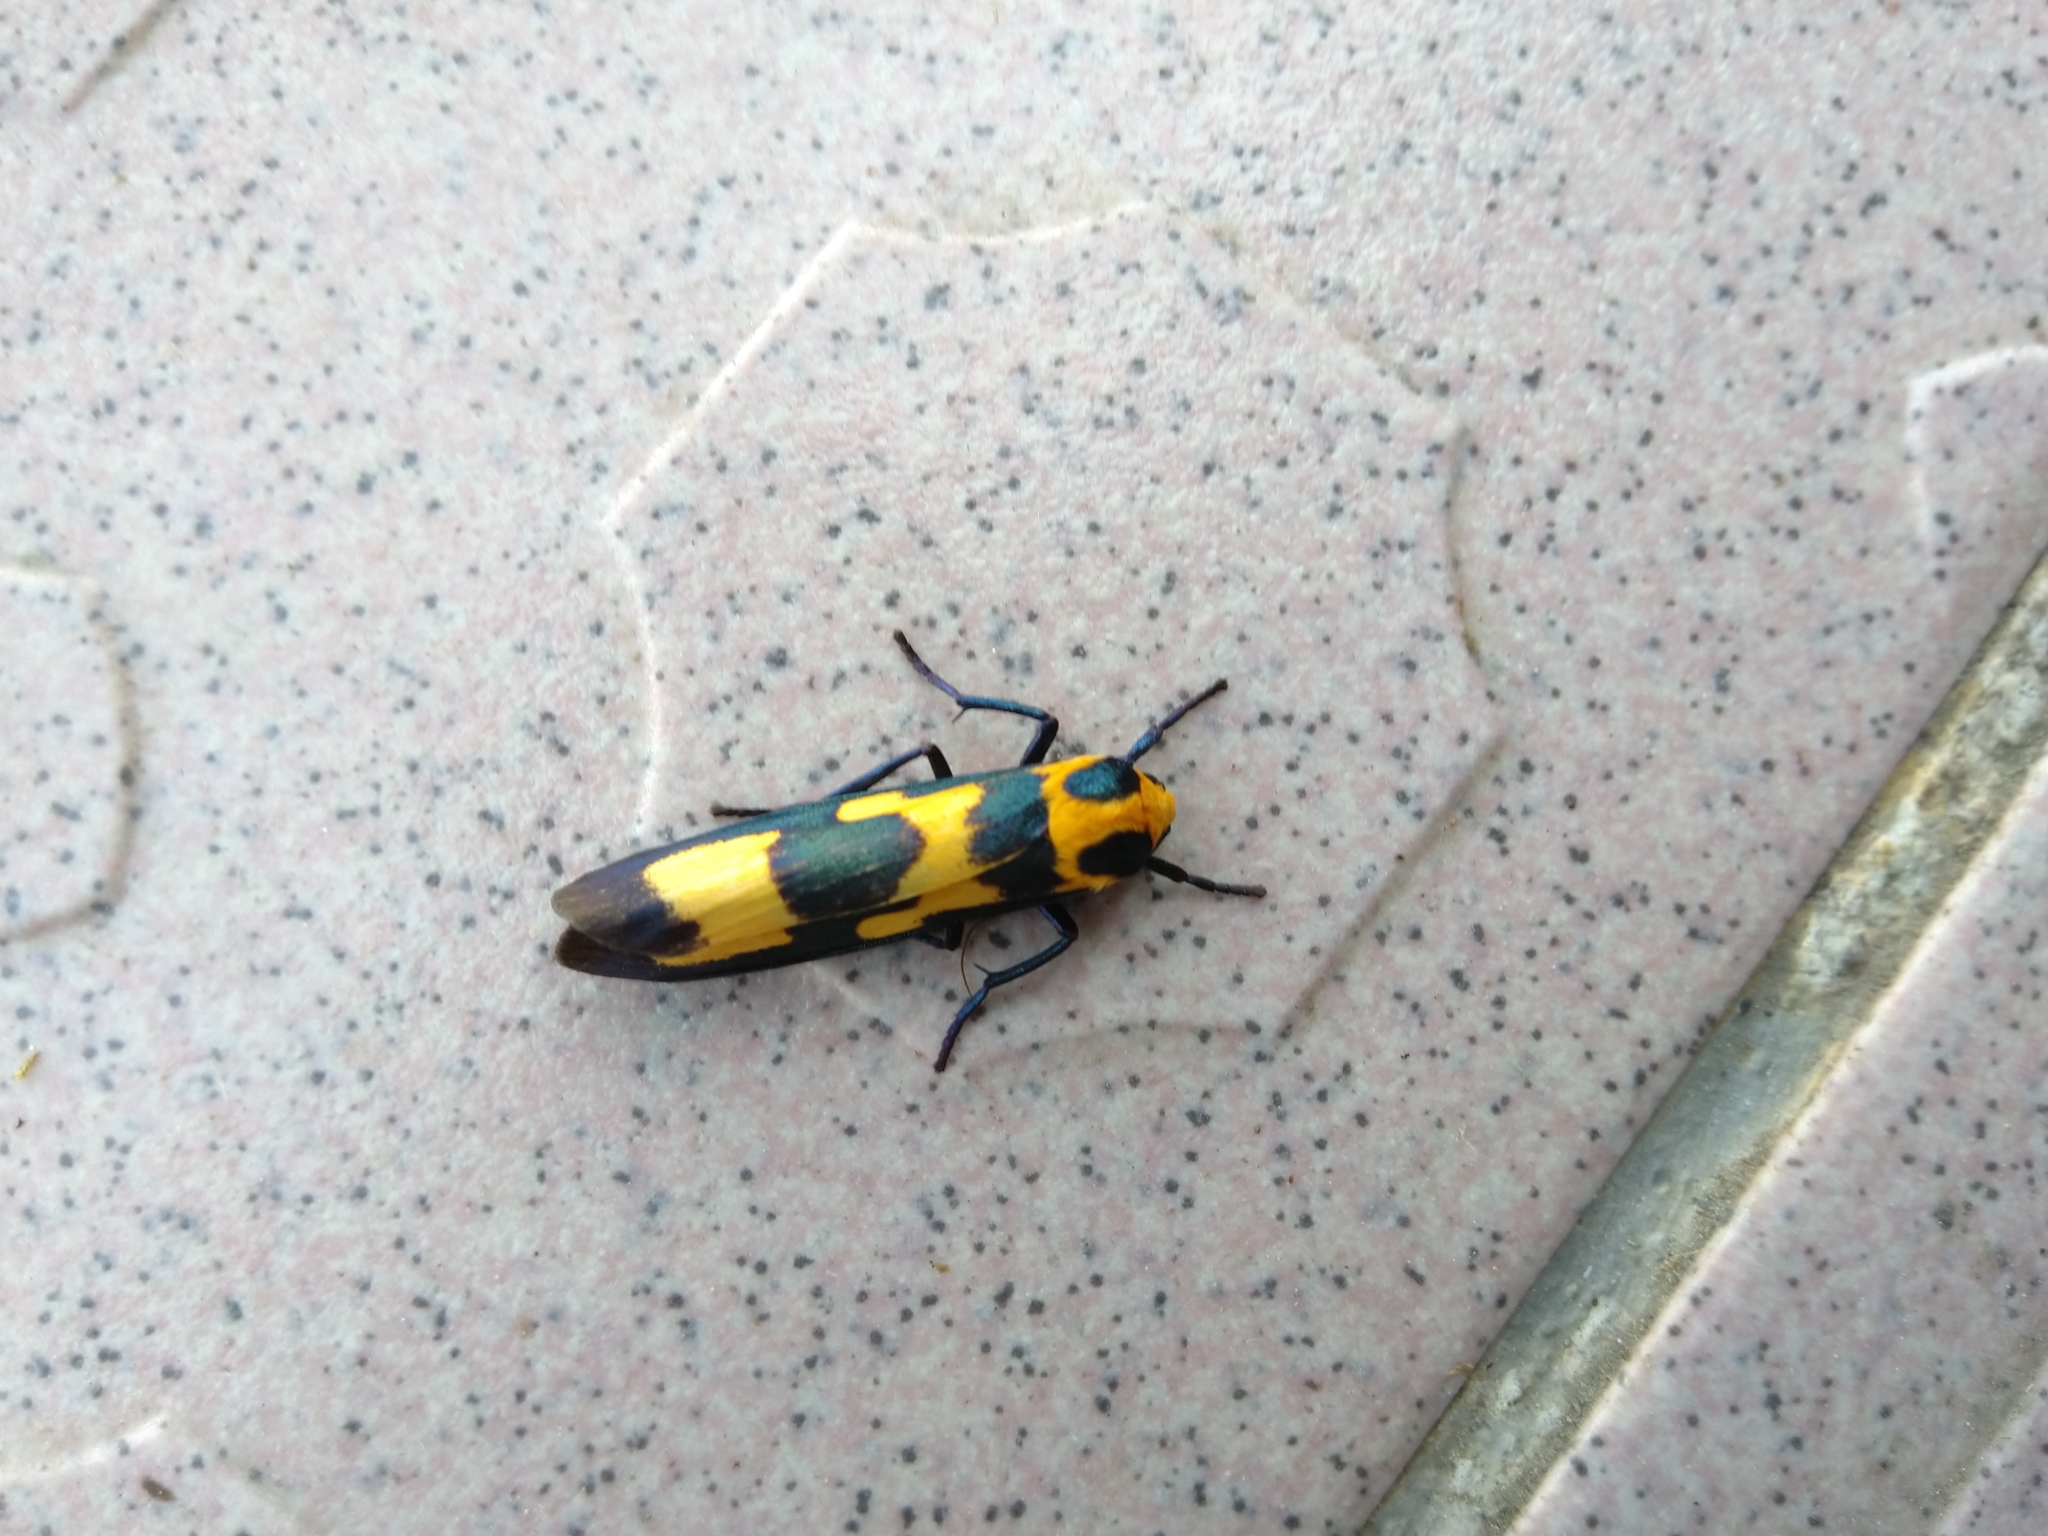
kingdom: Animalia
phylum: Arthropoda
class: Insecta
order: Lepidoptera
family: Erebidae
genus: Chrysaeglia
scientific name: Chrysaeglia magnifica
